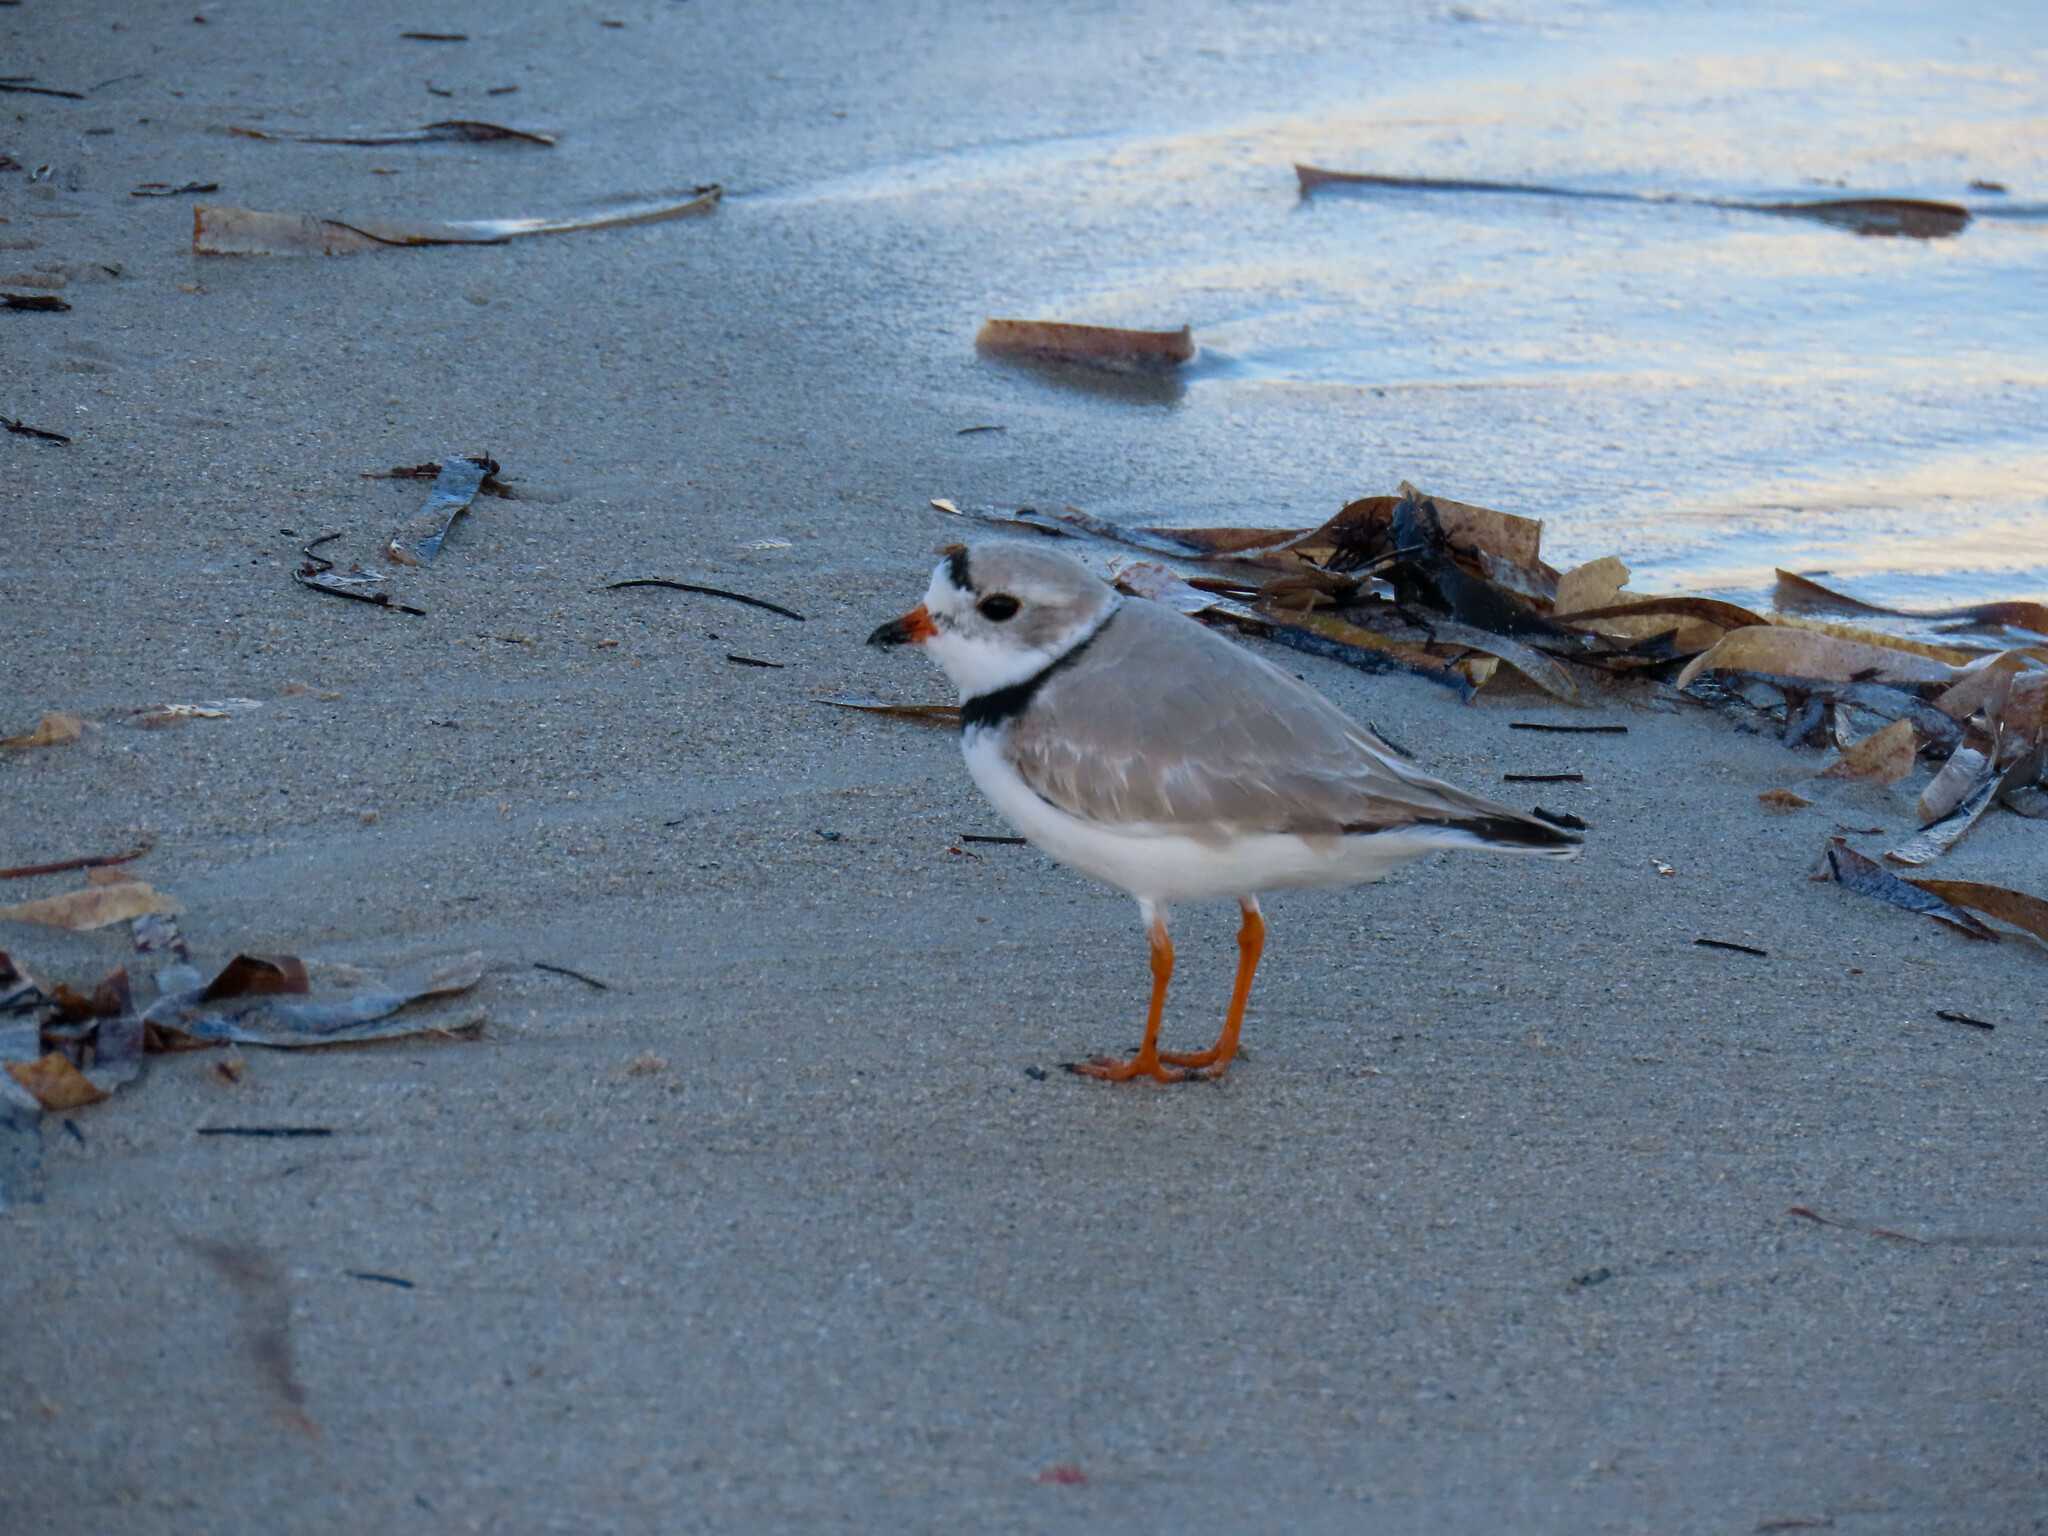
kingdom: Animalia
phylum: Chordata
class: Aves
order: Charadriiformes
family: Charadriidae
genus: Charadrius
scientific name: Charadrius melodus
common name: Piping plover
